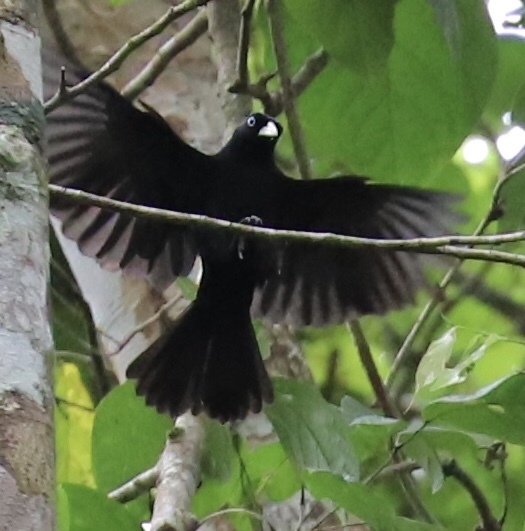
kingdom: Animalia
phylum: Chordata
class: Aves
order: Passeriformes
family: Icteridae
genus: Cacicus
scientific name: Cacicus uropygialis
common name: Scarlet-rumped cacique
